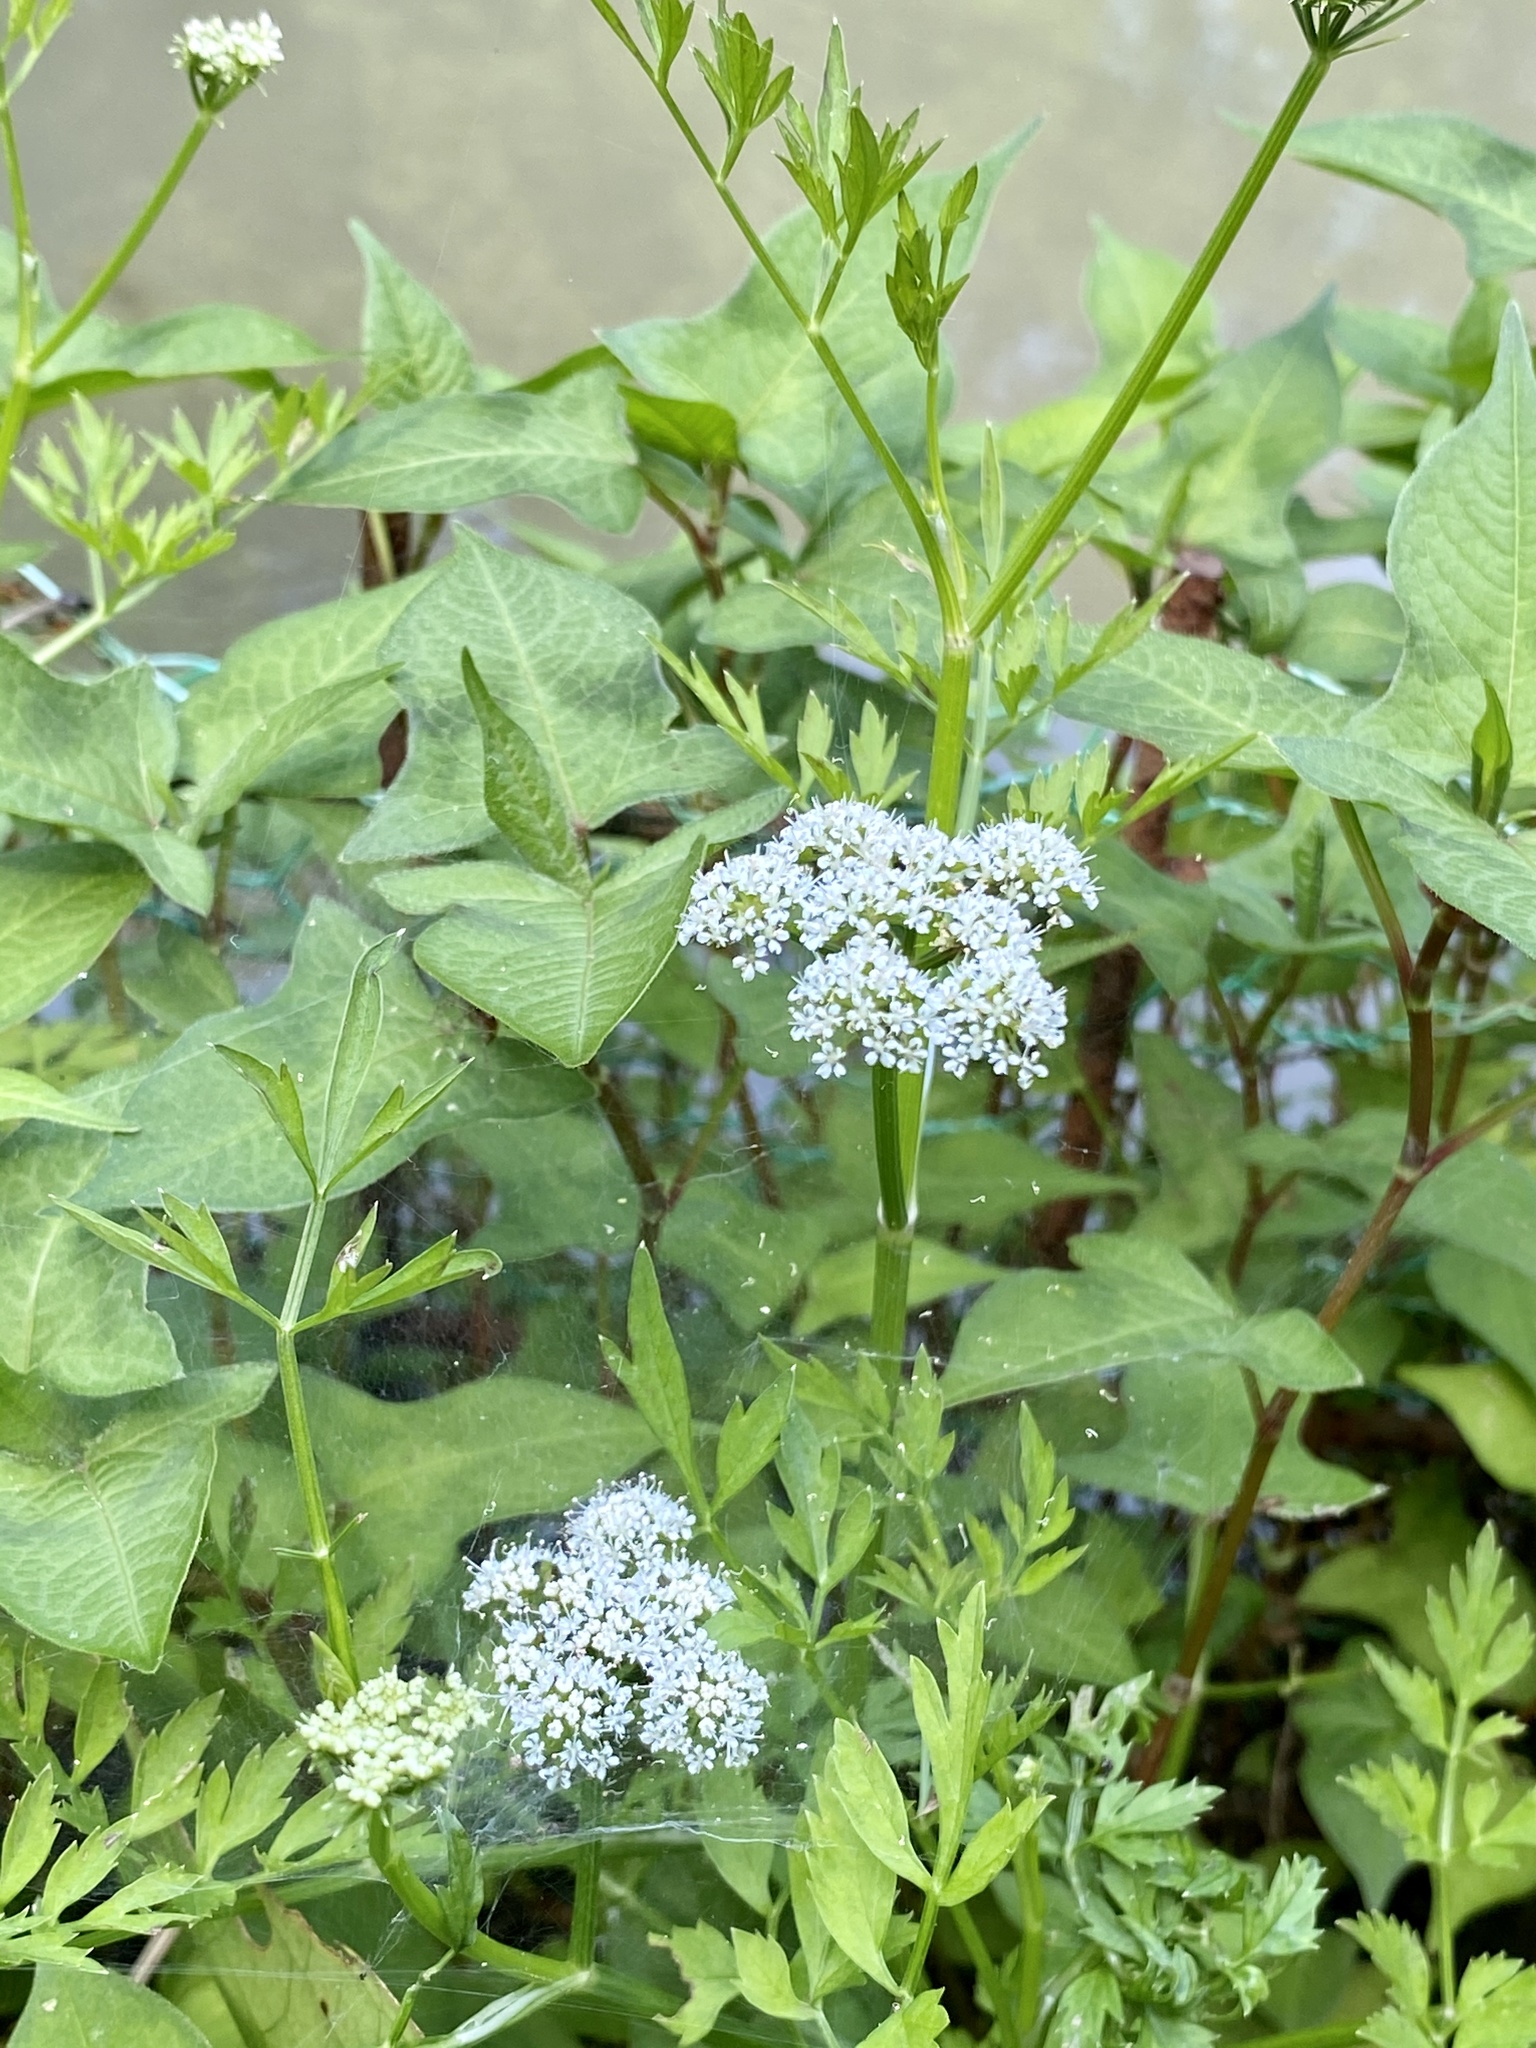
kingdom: Plantae
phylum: Tracheophyta
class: Magnoliopsida
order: Apiales
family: Apiaceae
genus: Oenanthe
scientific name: Oenanthe javanica
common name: Java water-dropwort
